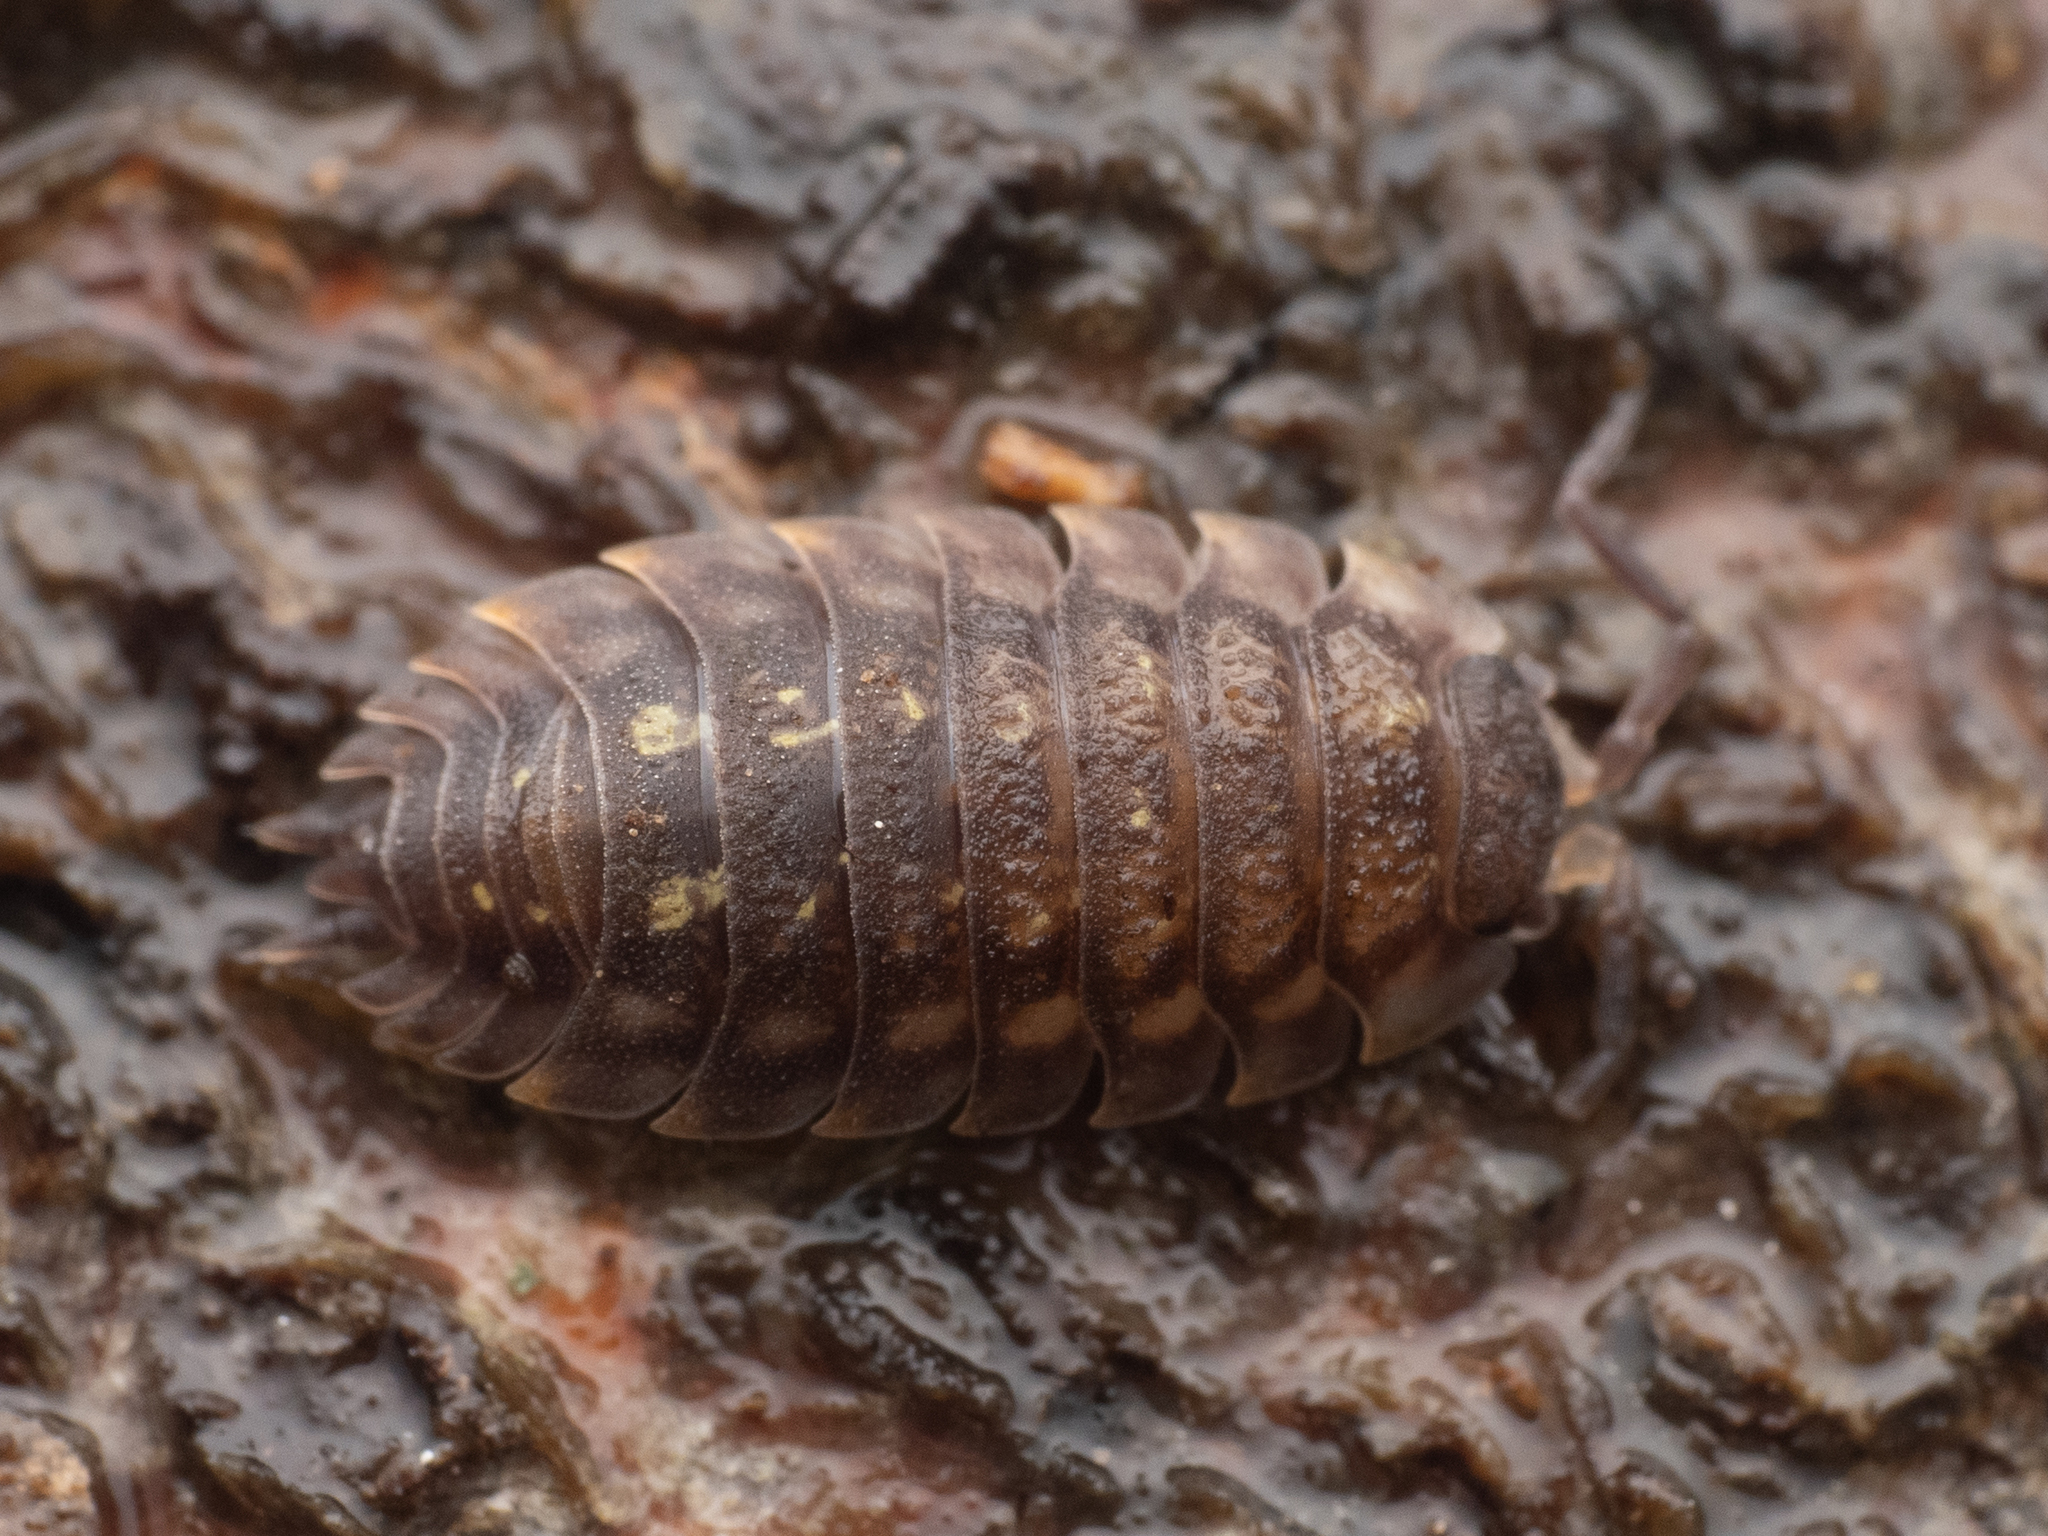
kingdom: Animalia
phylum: Arthropoda
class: Malacostraca
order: Isopoda
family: Oniscidae
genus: Oniscus
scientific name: Oniscus asellus
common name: Common shiny woodlouse
